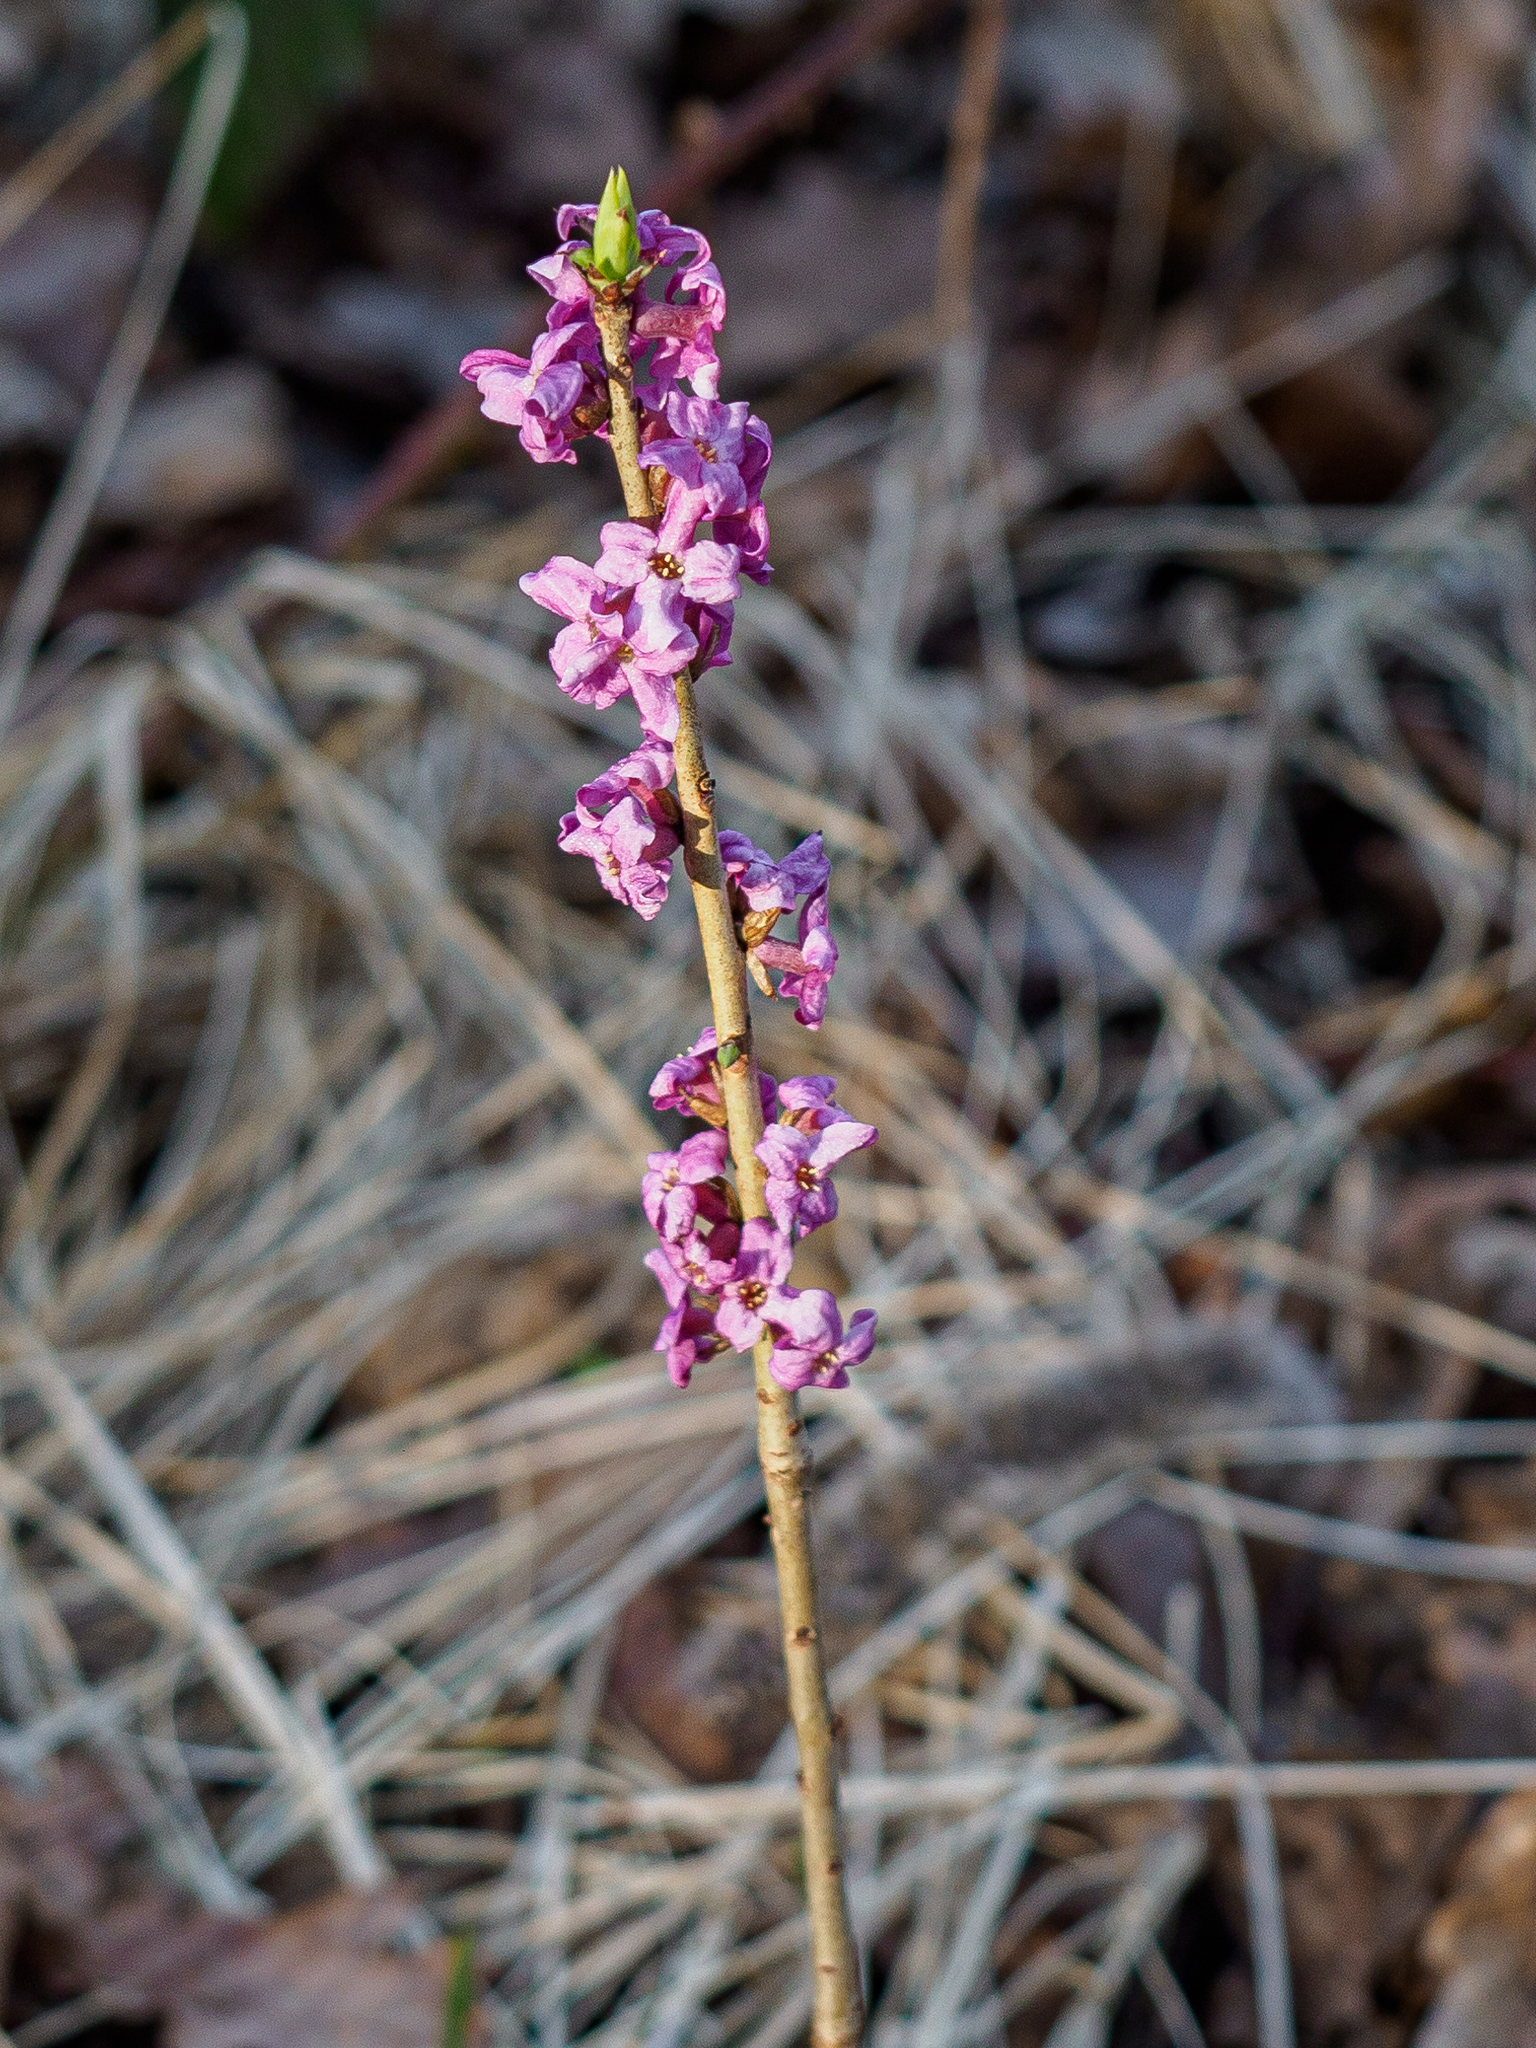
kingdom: Plantae
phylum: Tracheophyta
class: Magnoliopsida
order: Malvales
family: Thymelaeaceae
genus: Daphne
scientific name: Daphne mezereum
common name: Mezereon
